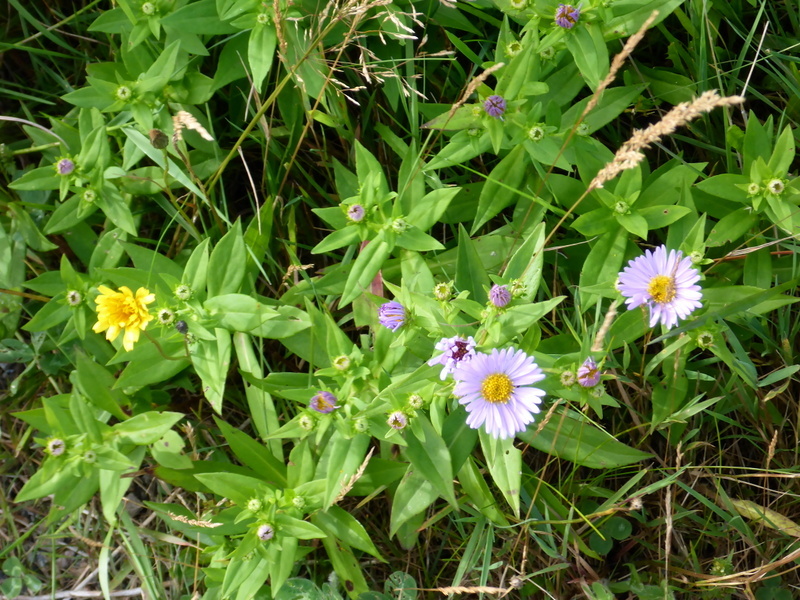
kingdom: Plantae
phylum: Tracheophyta
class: Magnoliopsida
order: Asterales
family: Asteraceae
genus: Symphyotrichum
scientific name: Symphyotrichum puniceum
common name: Bog aster
